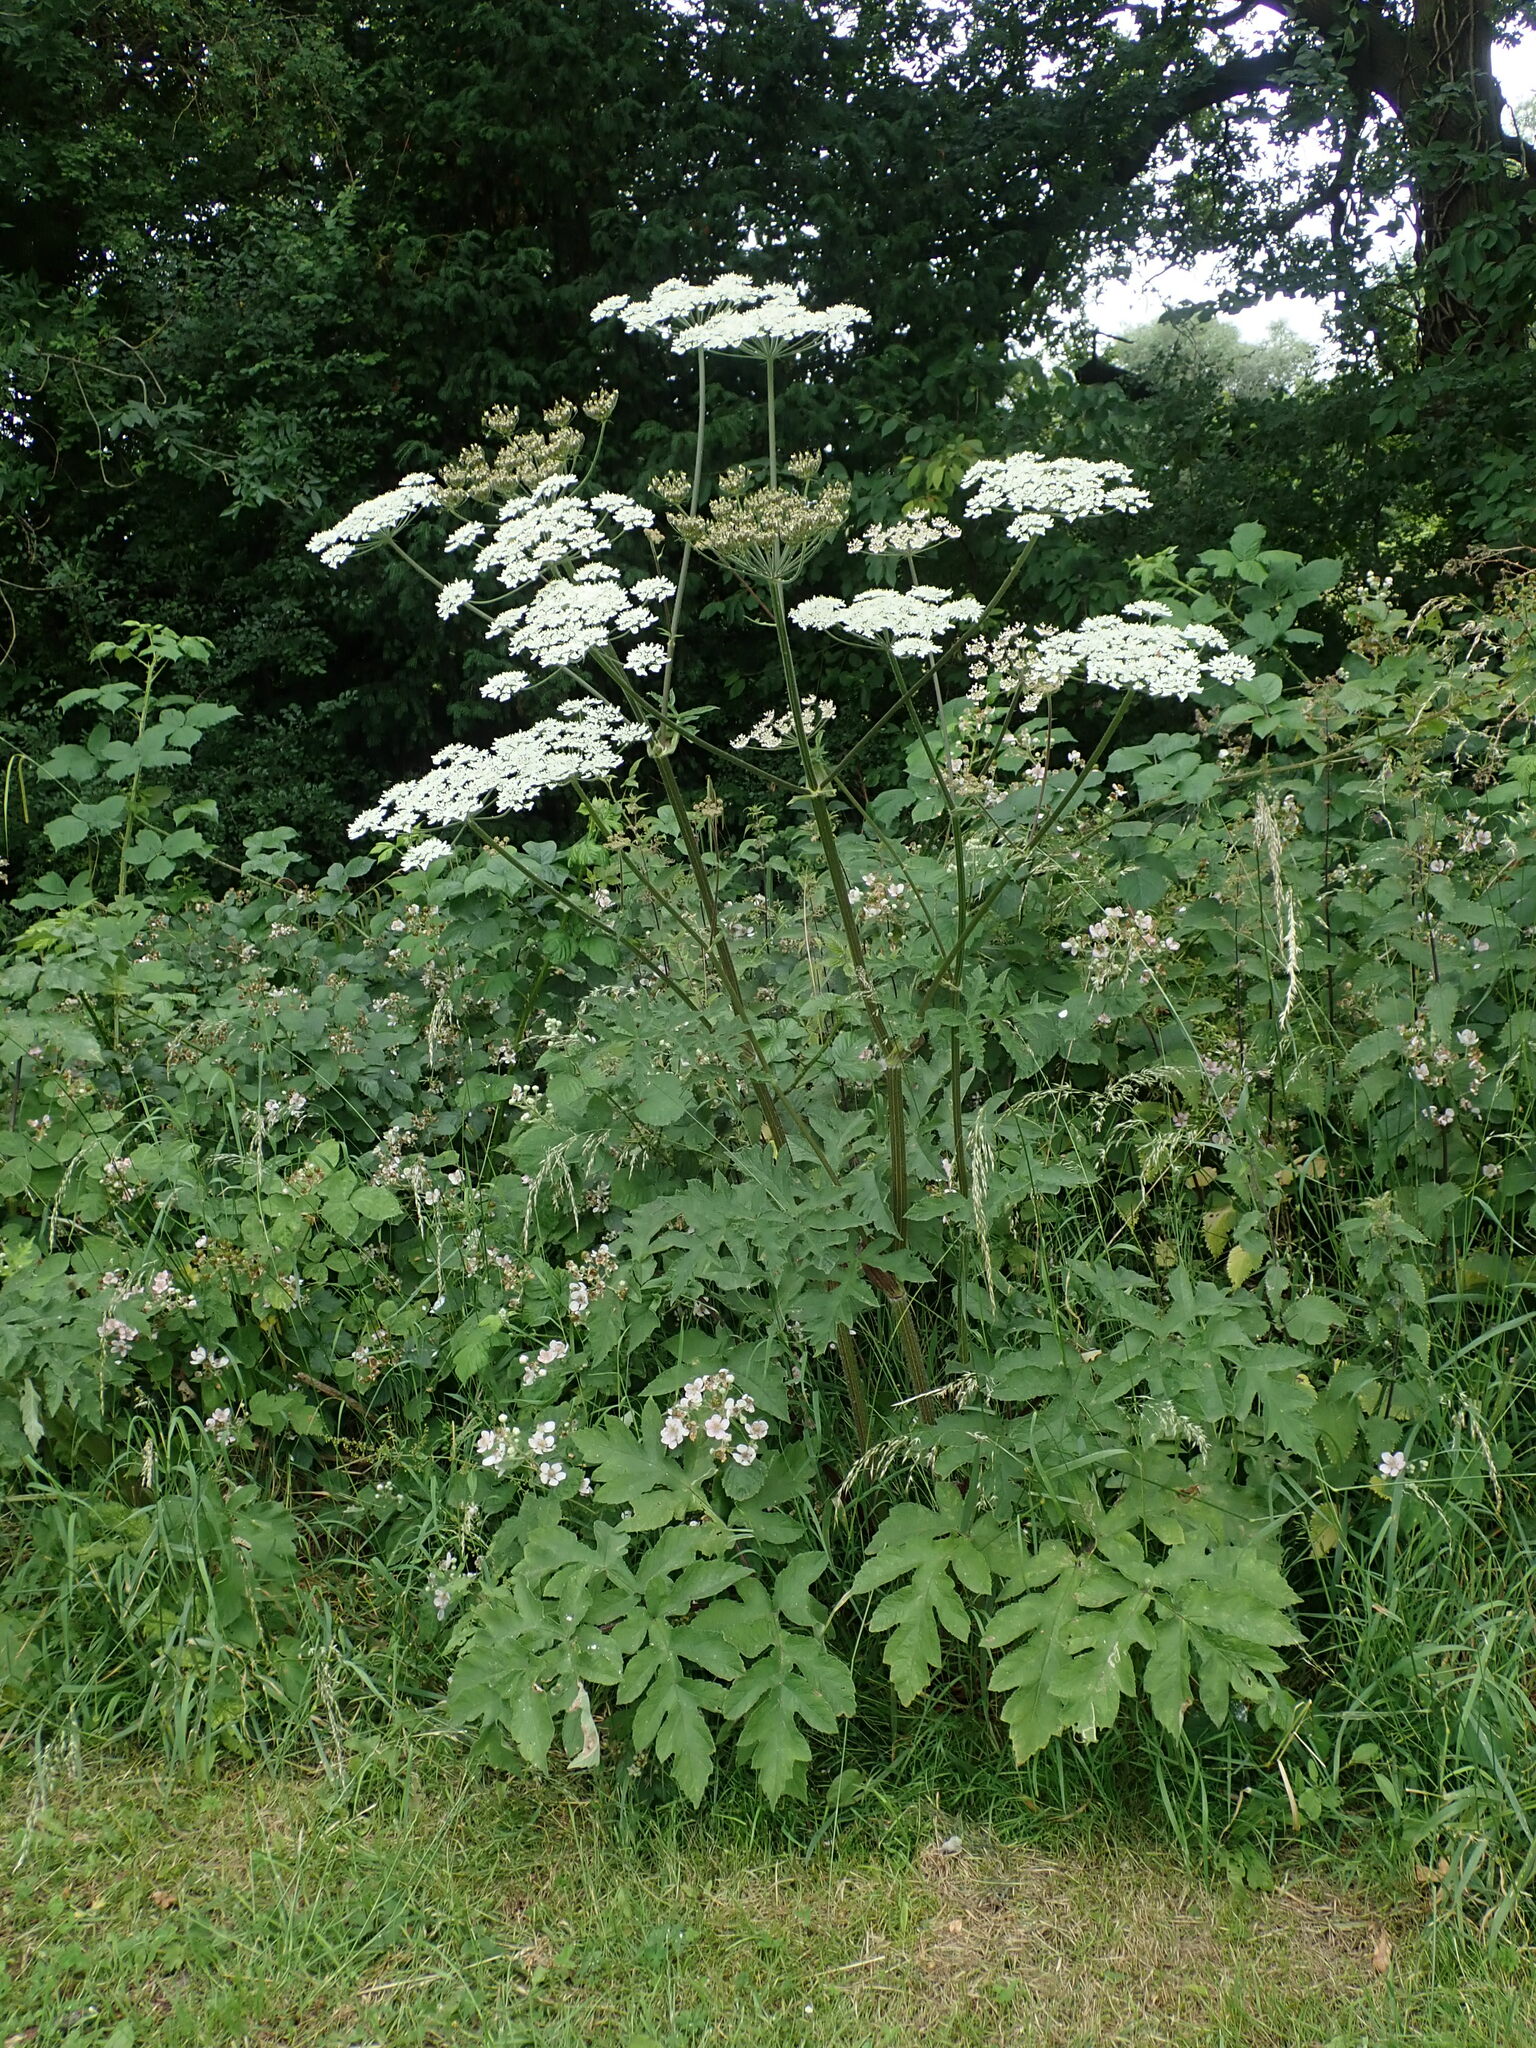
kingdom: Plantae
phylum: Tracheophyta
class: Magnoliopsida
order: Apiales
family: Apiaceae
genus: Heracleum
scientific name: Heracleum sphondylium
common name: Hogweed
